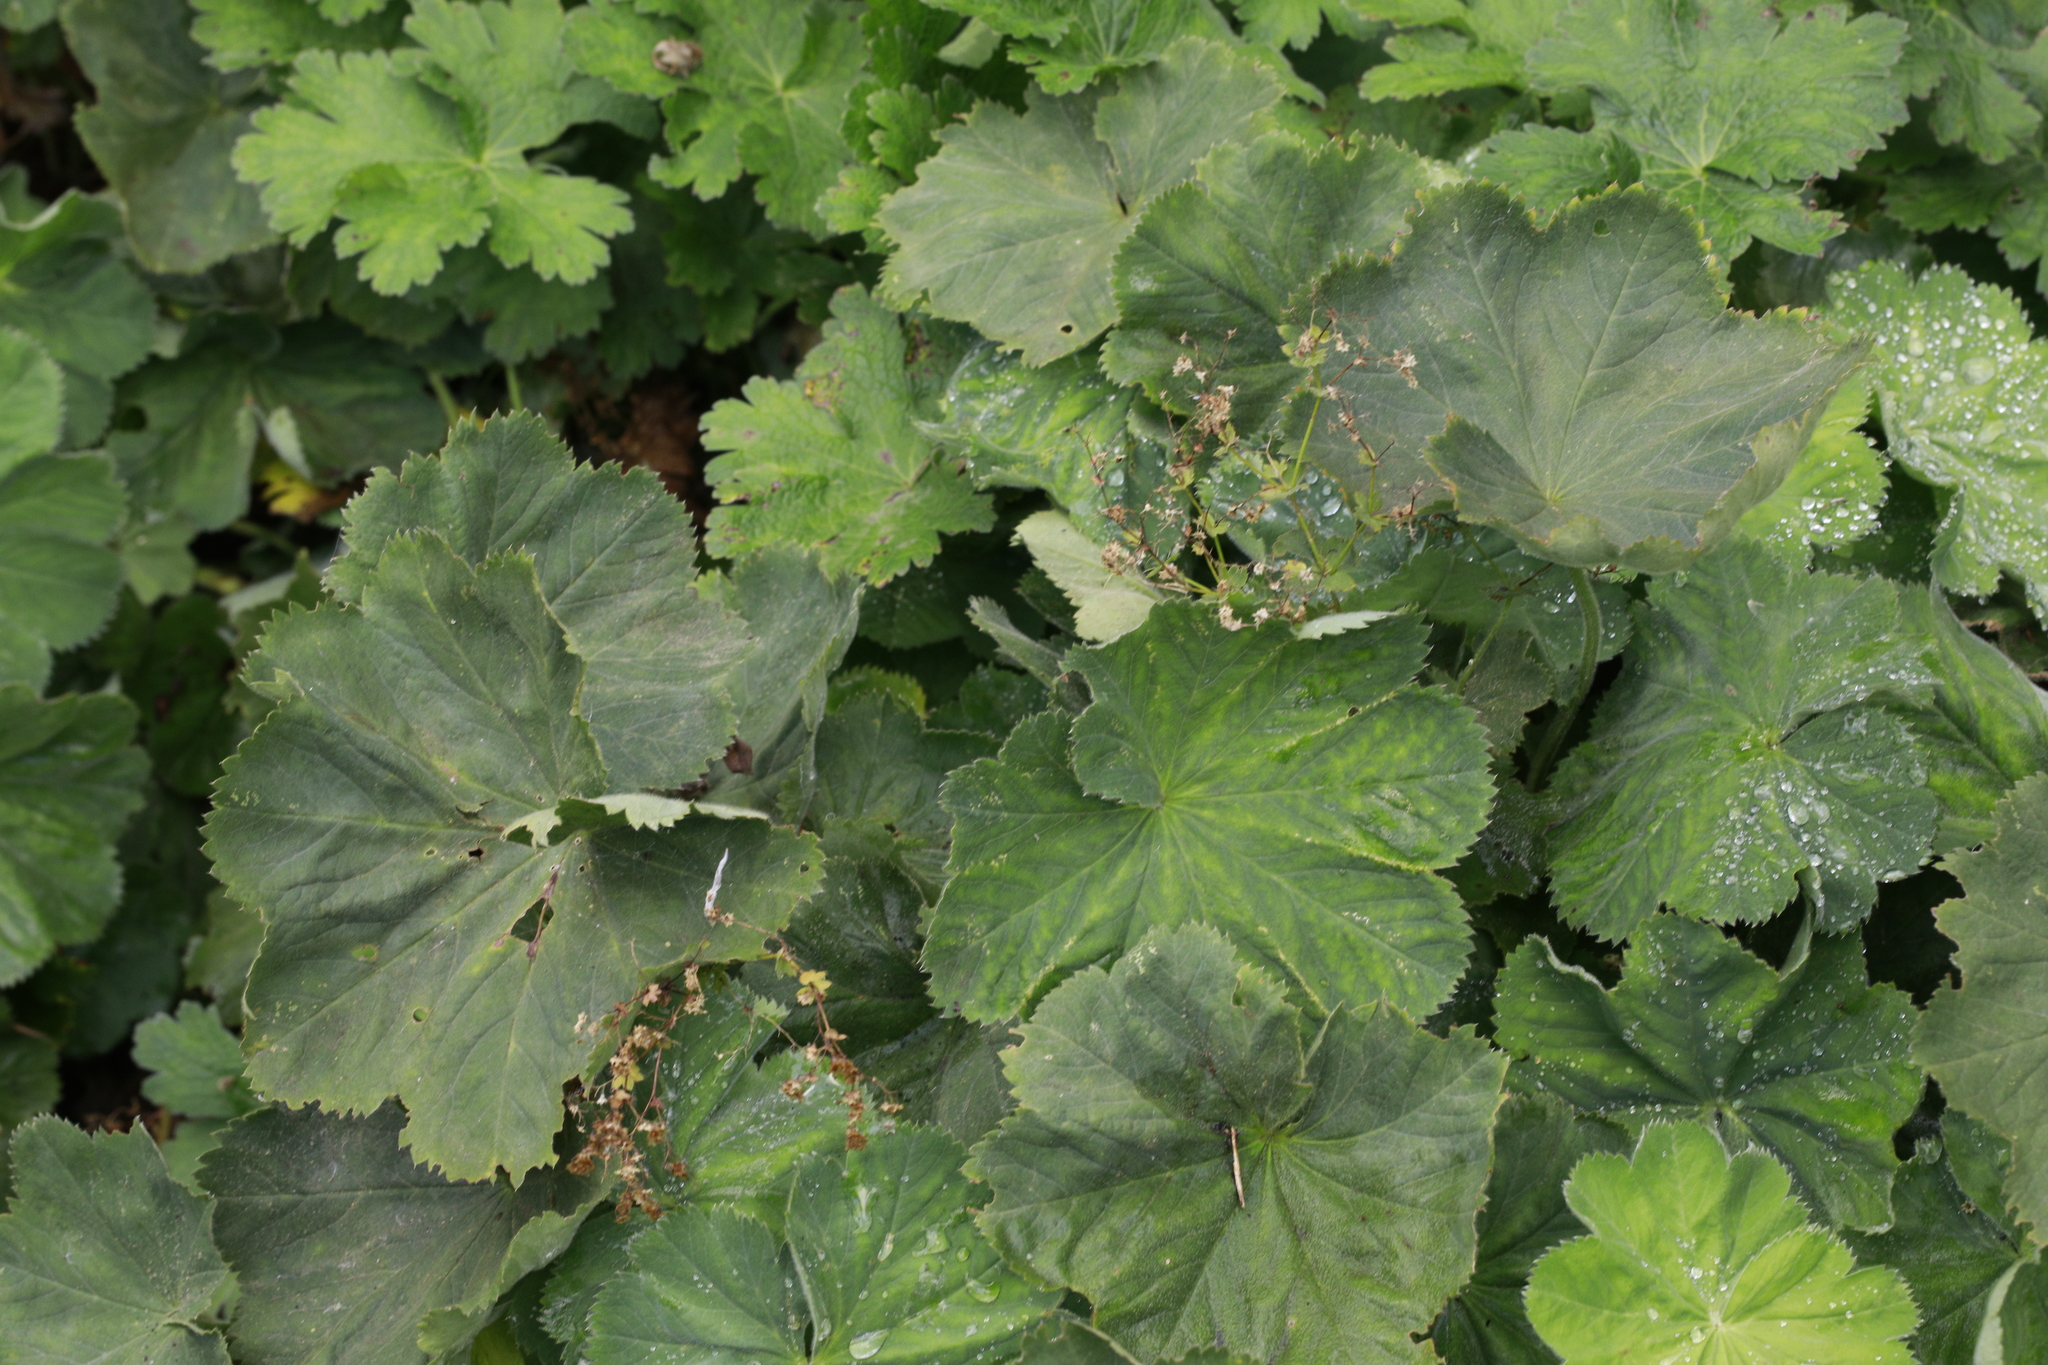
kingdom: Plantae
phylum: Tracheophyta
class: Magnoliopsida
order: Rosales
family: Rosaceae
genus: Alchemilla
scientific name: Alchemilla mollis
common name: Lady's-mantle
